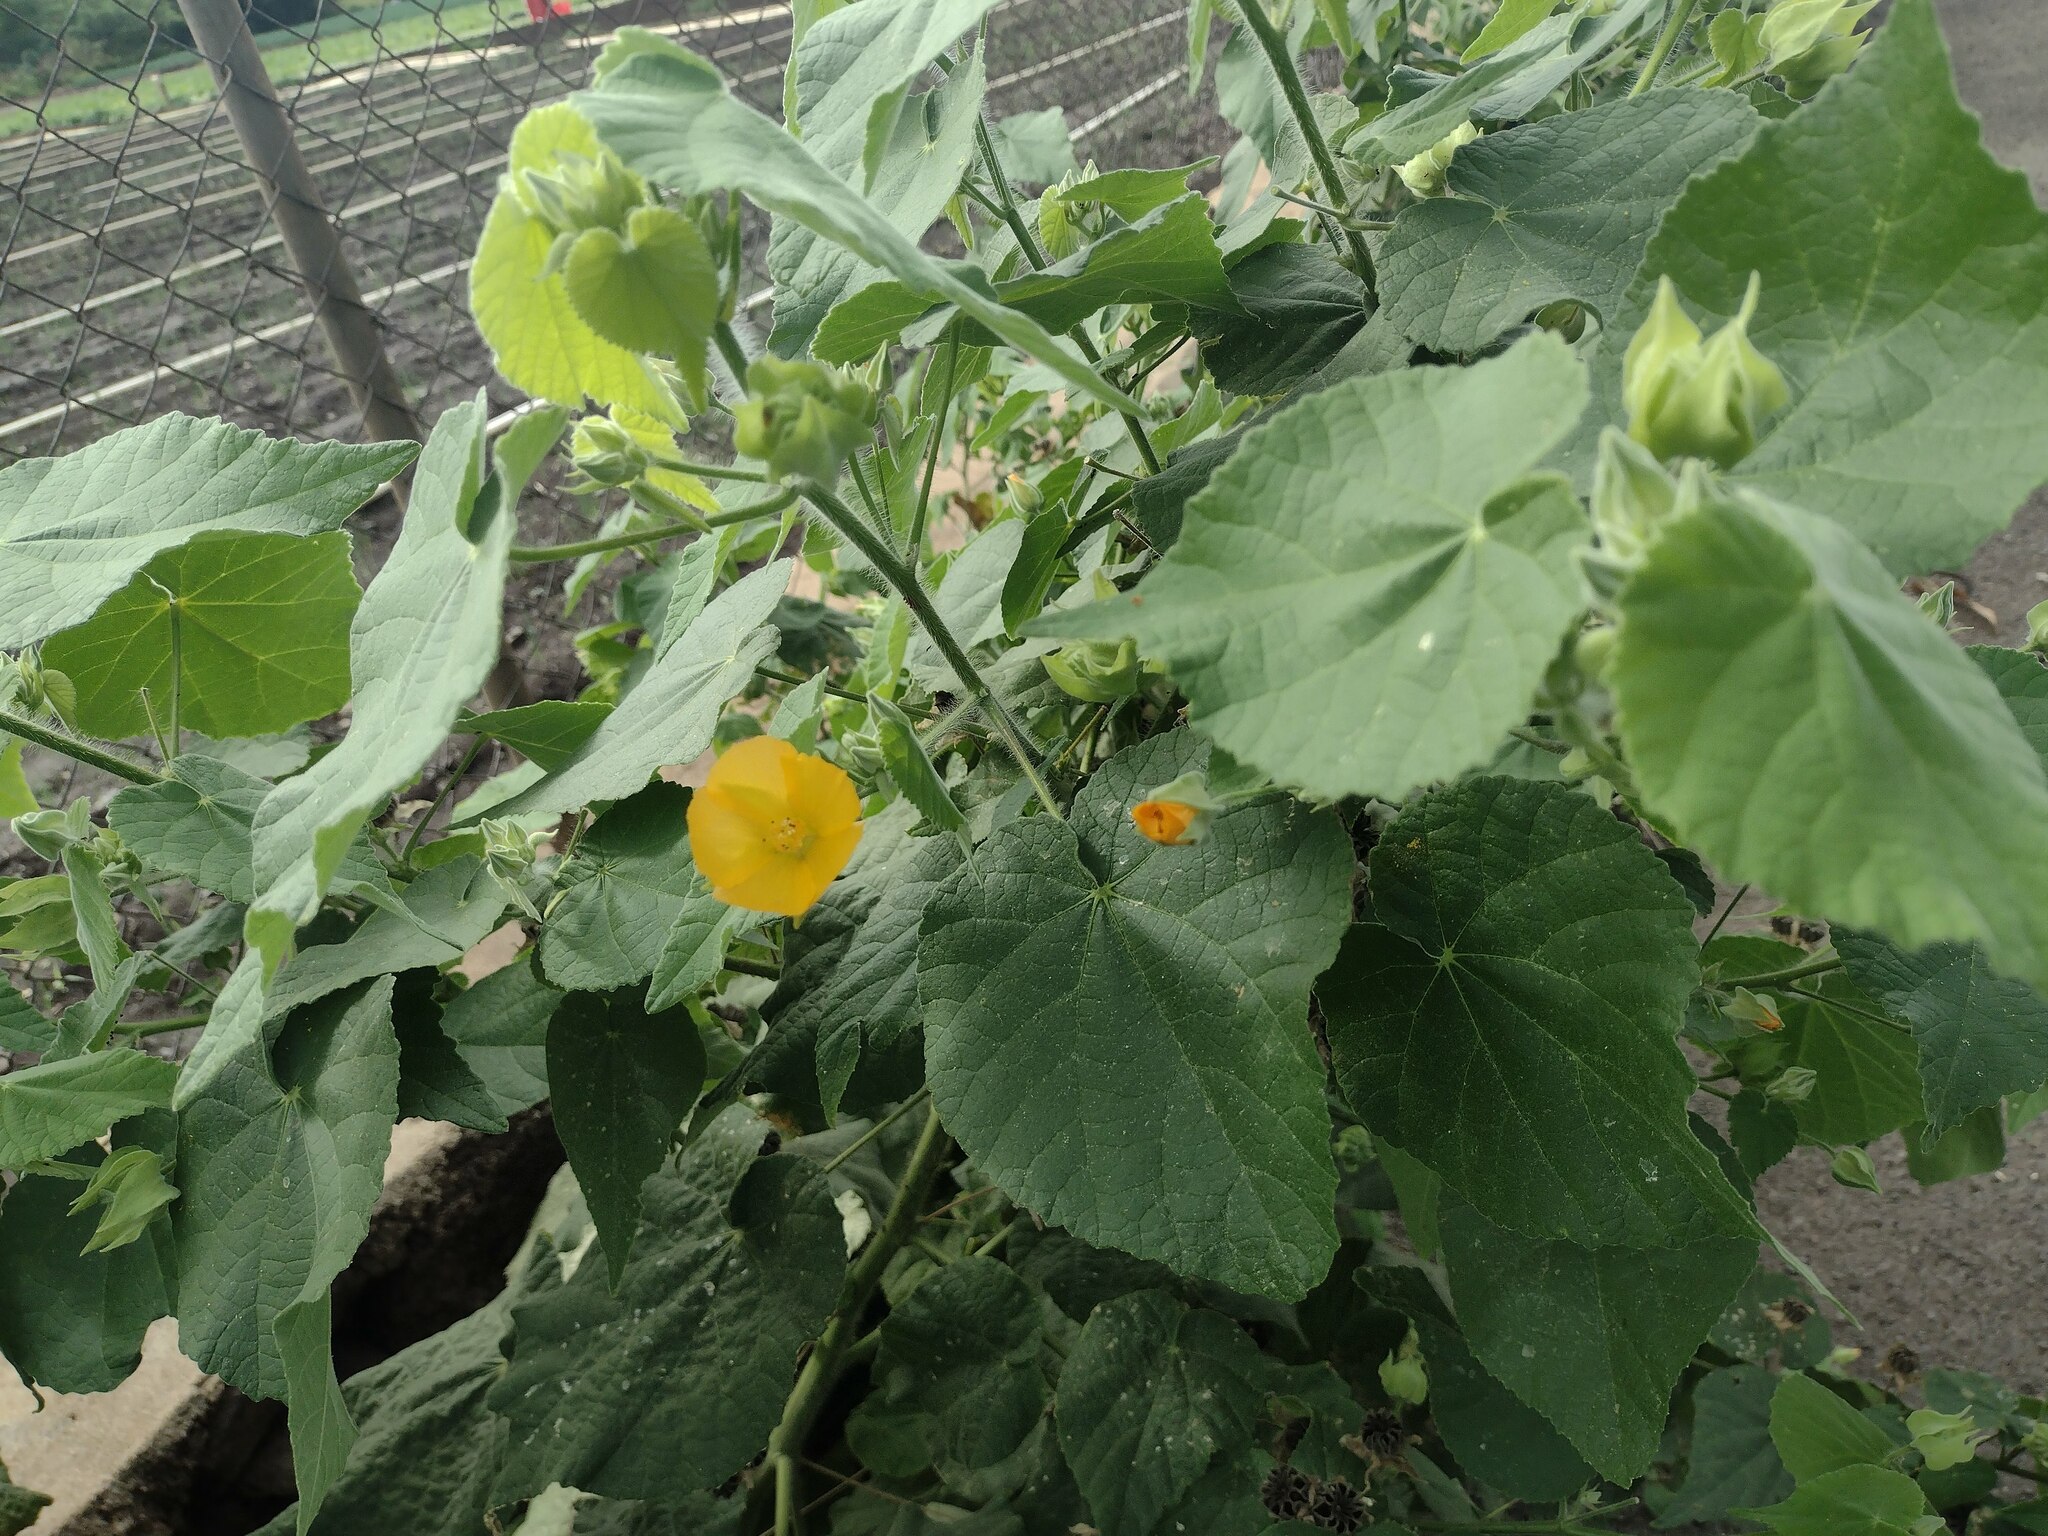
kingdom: Plantae
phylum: Tracheophyta
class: Magnoliopsida
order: Malvales
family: Malvaceae
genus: Abutilon
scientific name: Abutilon grandifolium
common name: Hairy abutilon
